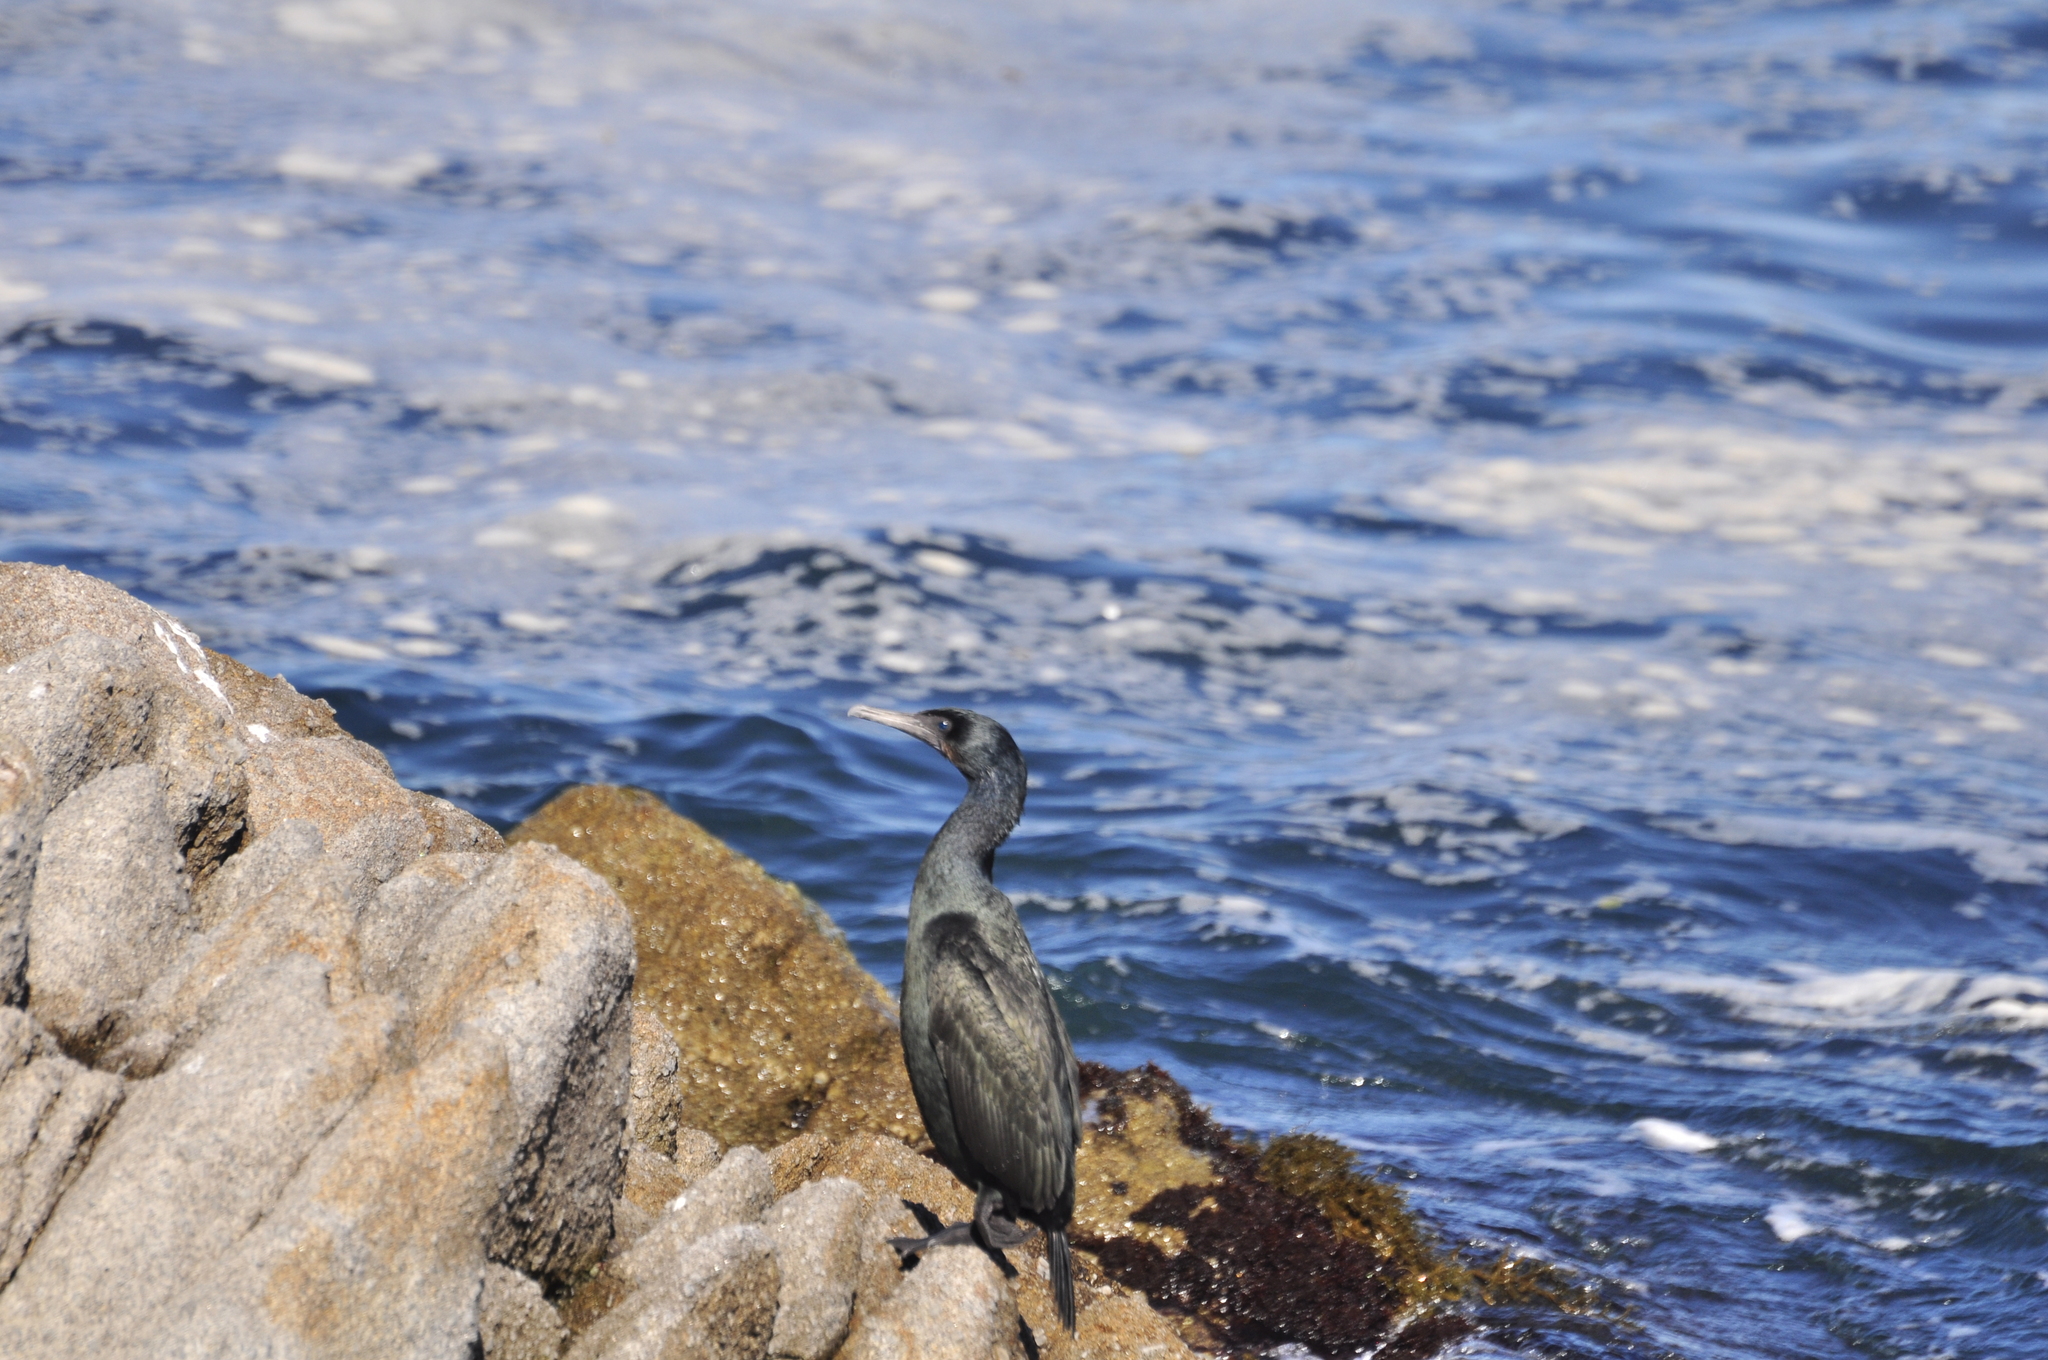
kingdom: Animalia
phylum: Chordata
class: Aves
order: Suliformes
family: Phalacrocoracidae
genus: Urile
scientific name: Urile penicillatus
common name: Brandt's cormorant
